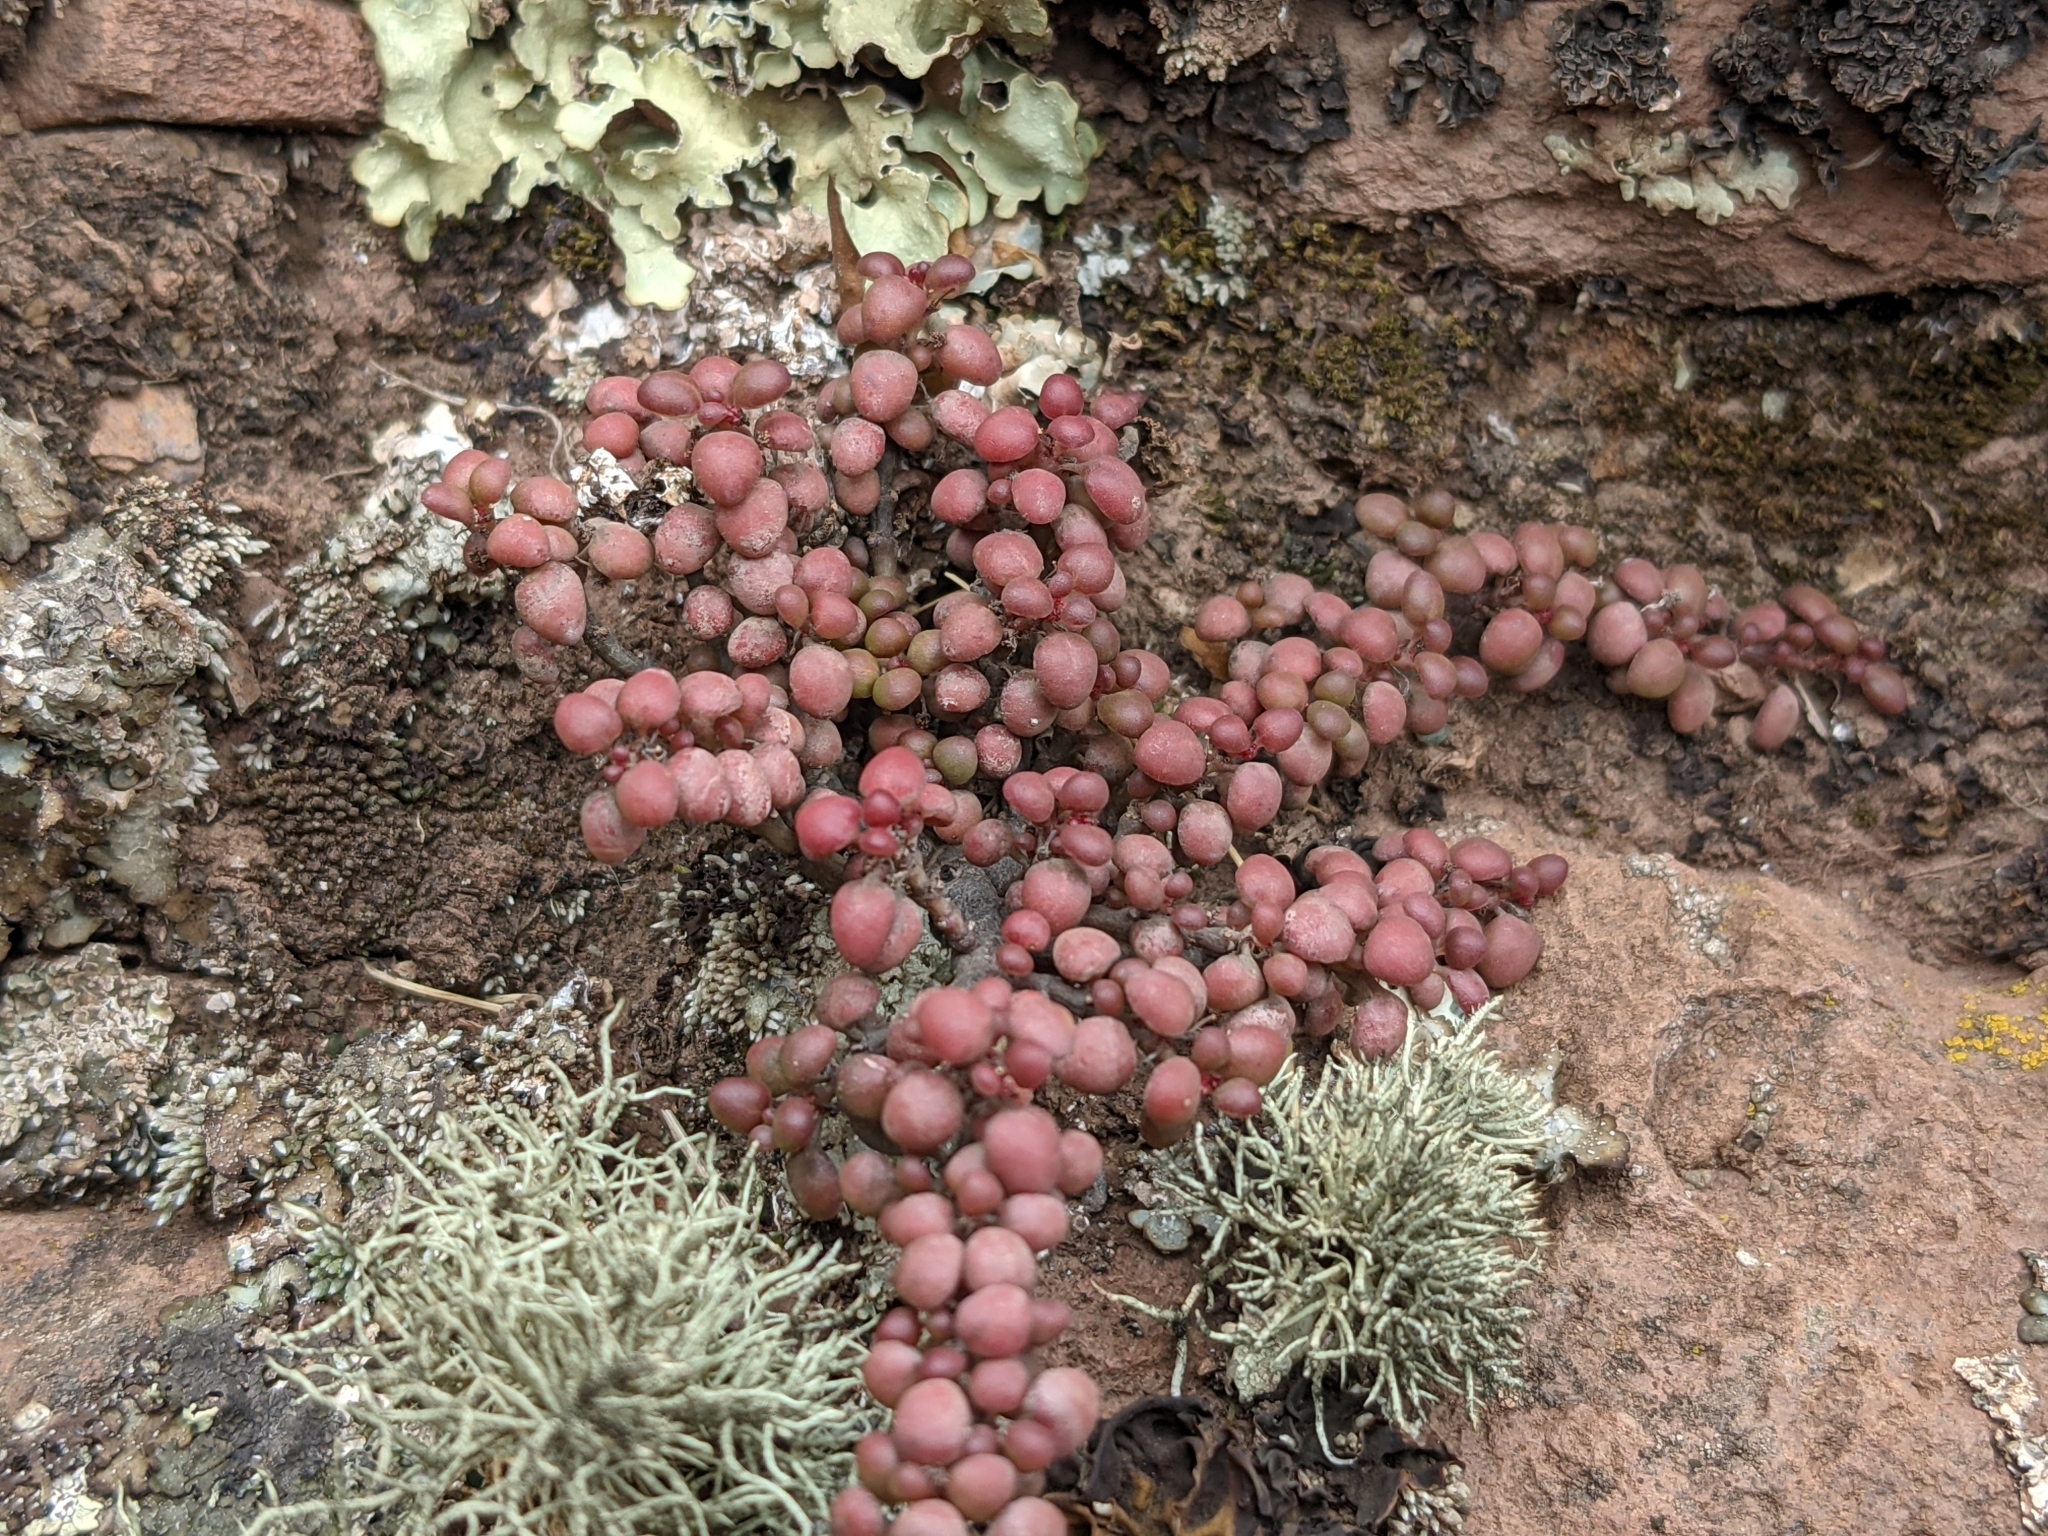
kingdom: Plantae
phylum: Tracheophyta
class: Magnoliopsida
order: Rosales
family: Urticaceae
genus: Pilea
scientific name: Pilea serpyllacea
